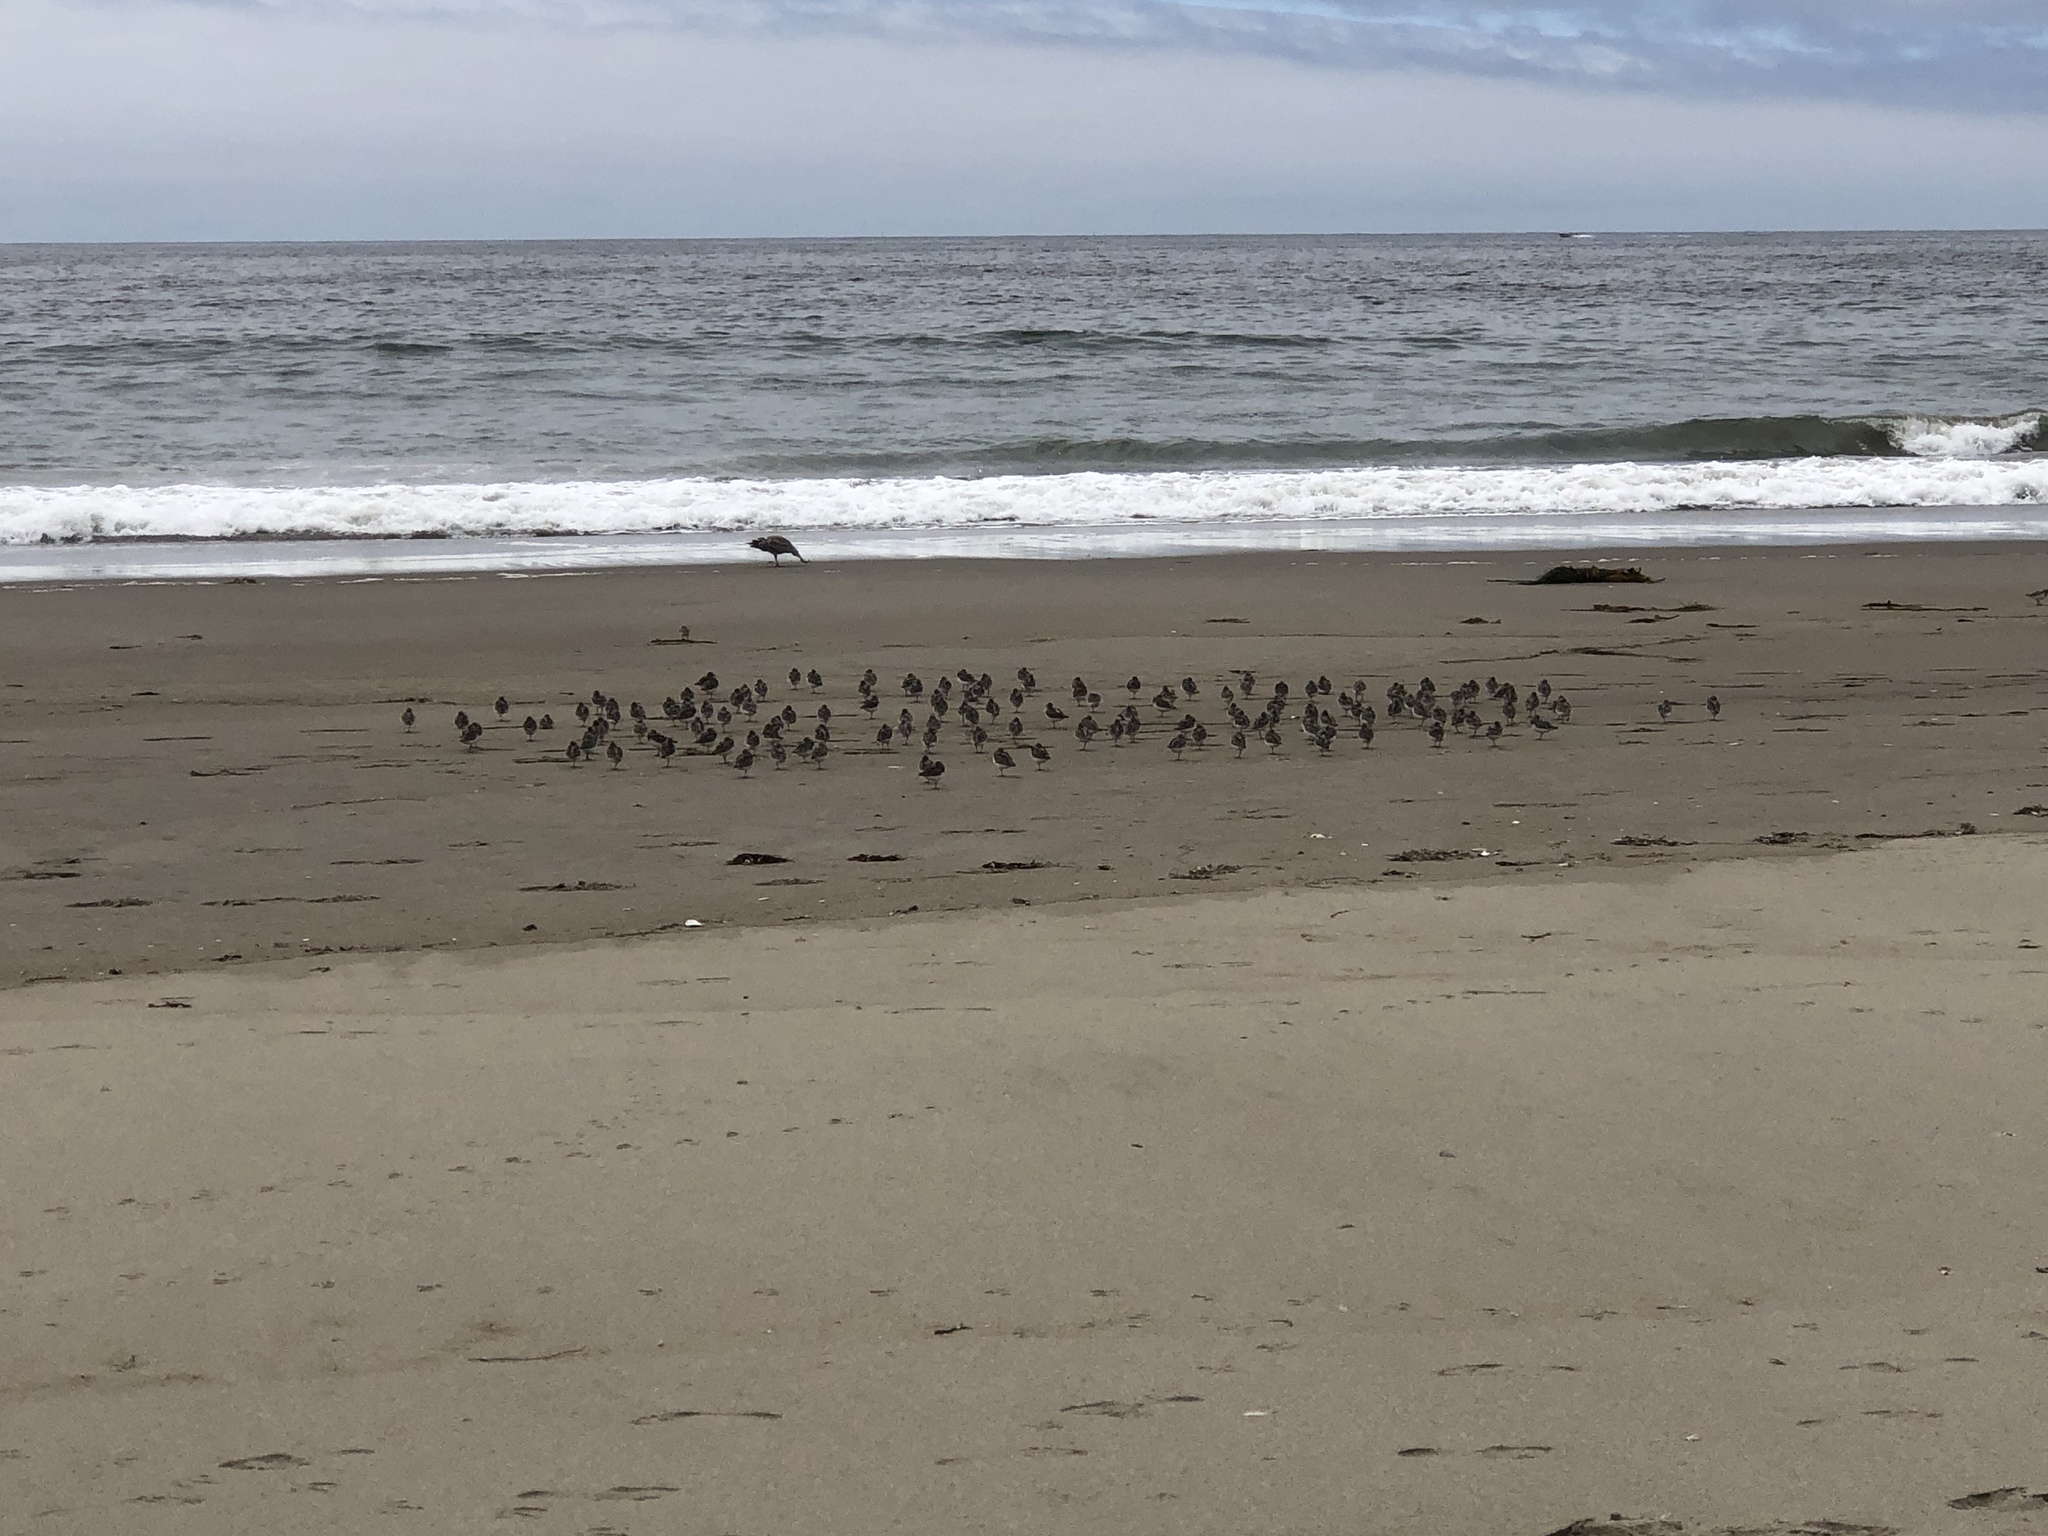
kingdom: Animalia
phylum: Chordata
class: Aves
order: Charadriiformes
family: Scolopacidae
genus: Calidris
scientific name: Calidris alba
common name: Sanderling
